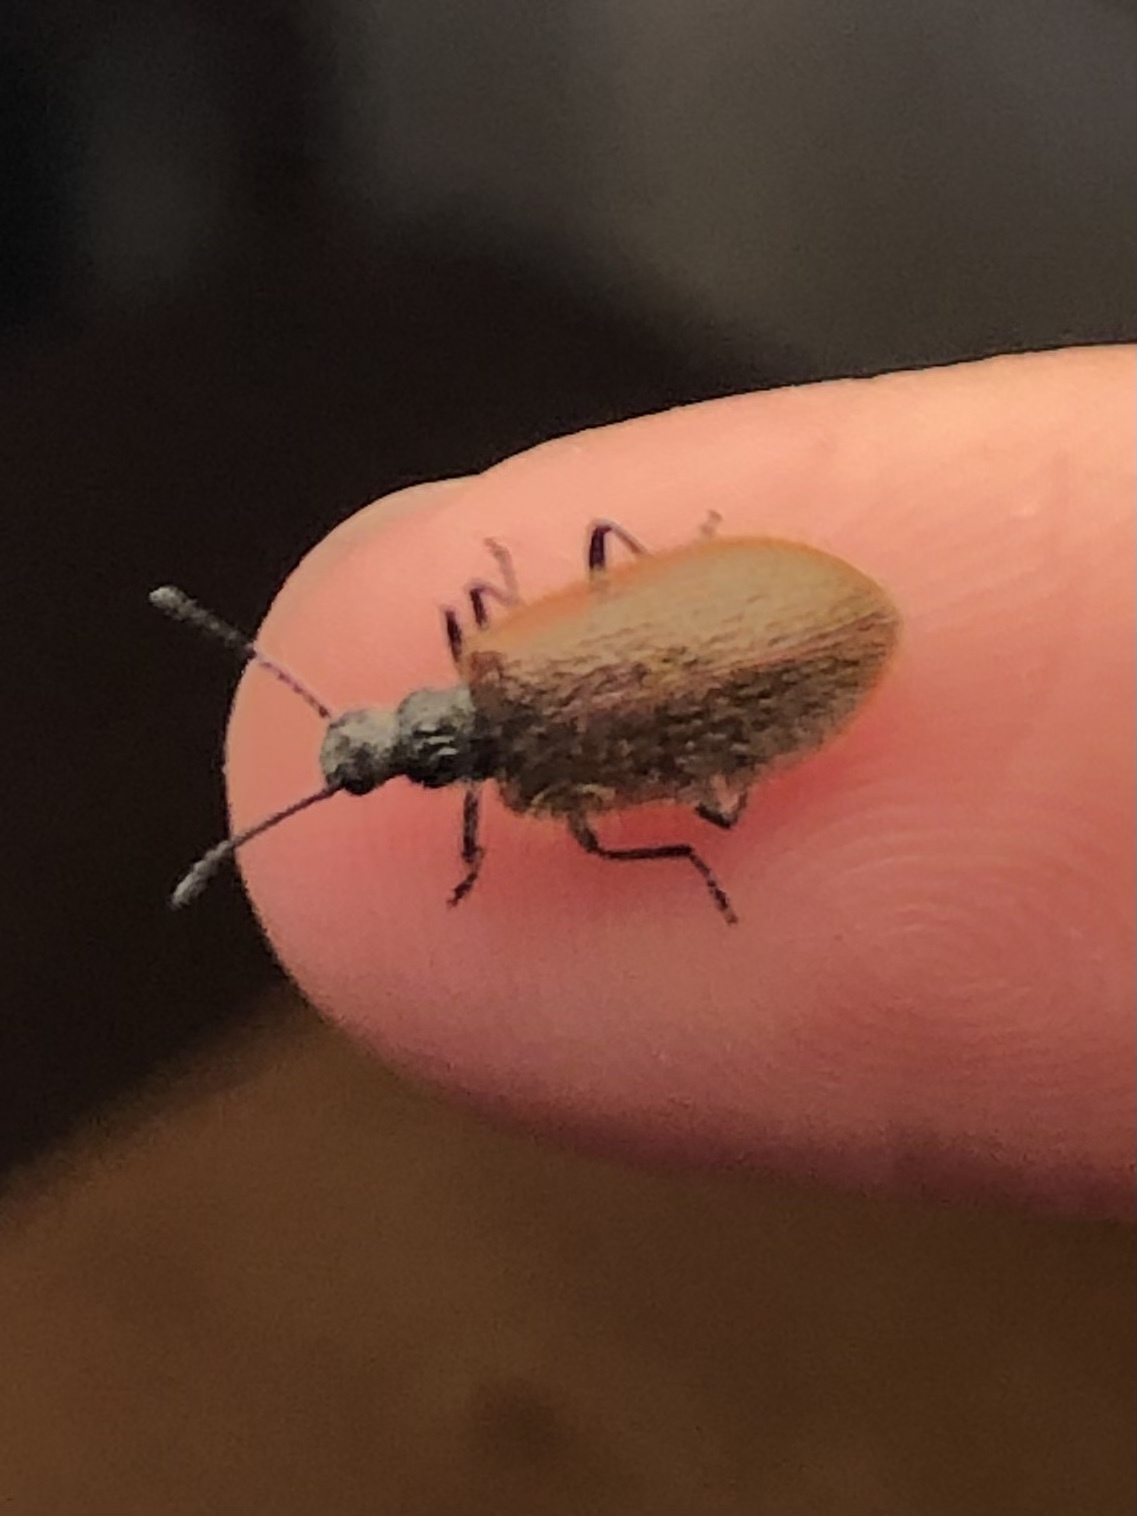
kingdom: Animalia
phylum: Arthropoda
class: Insecta
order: Coleoptera
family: Tenebrionidae
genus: Lagria
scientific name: Lagria hirta
